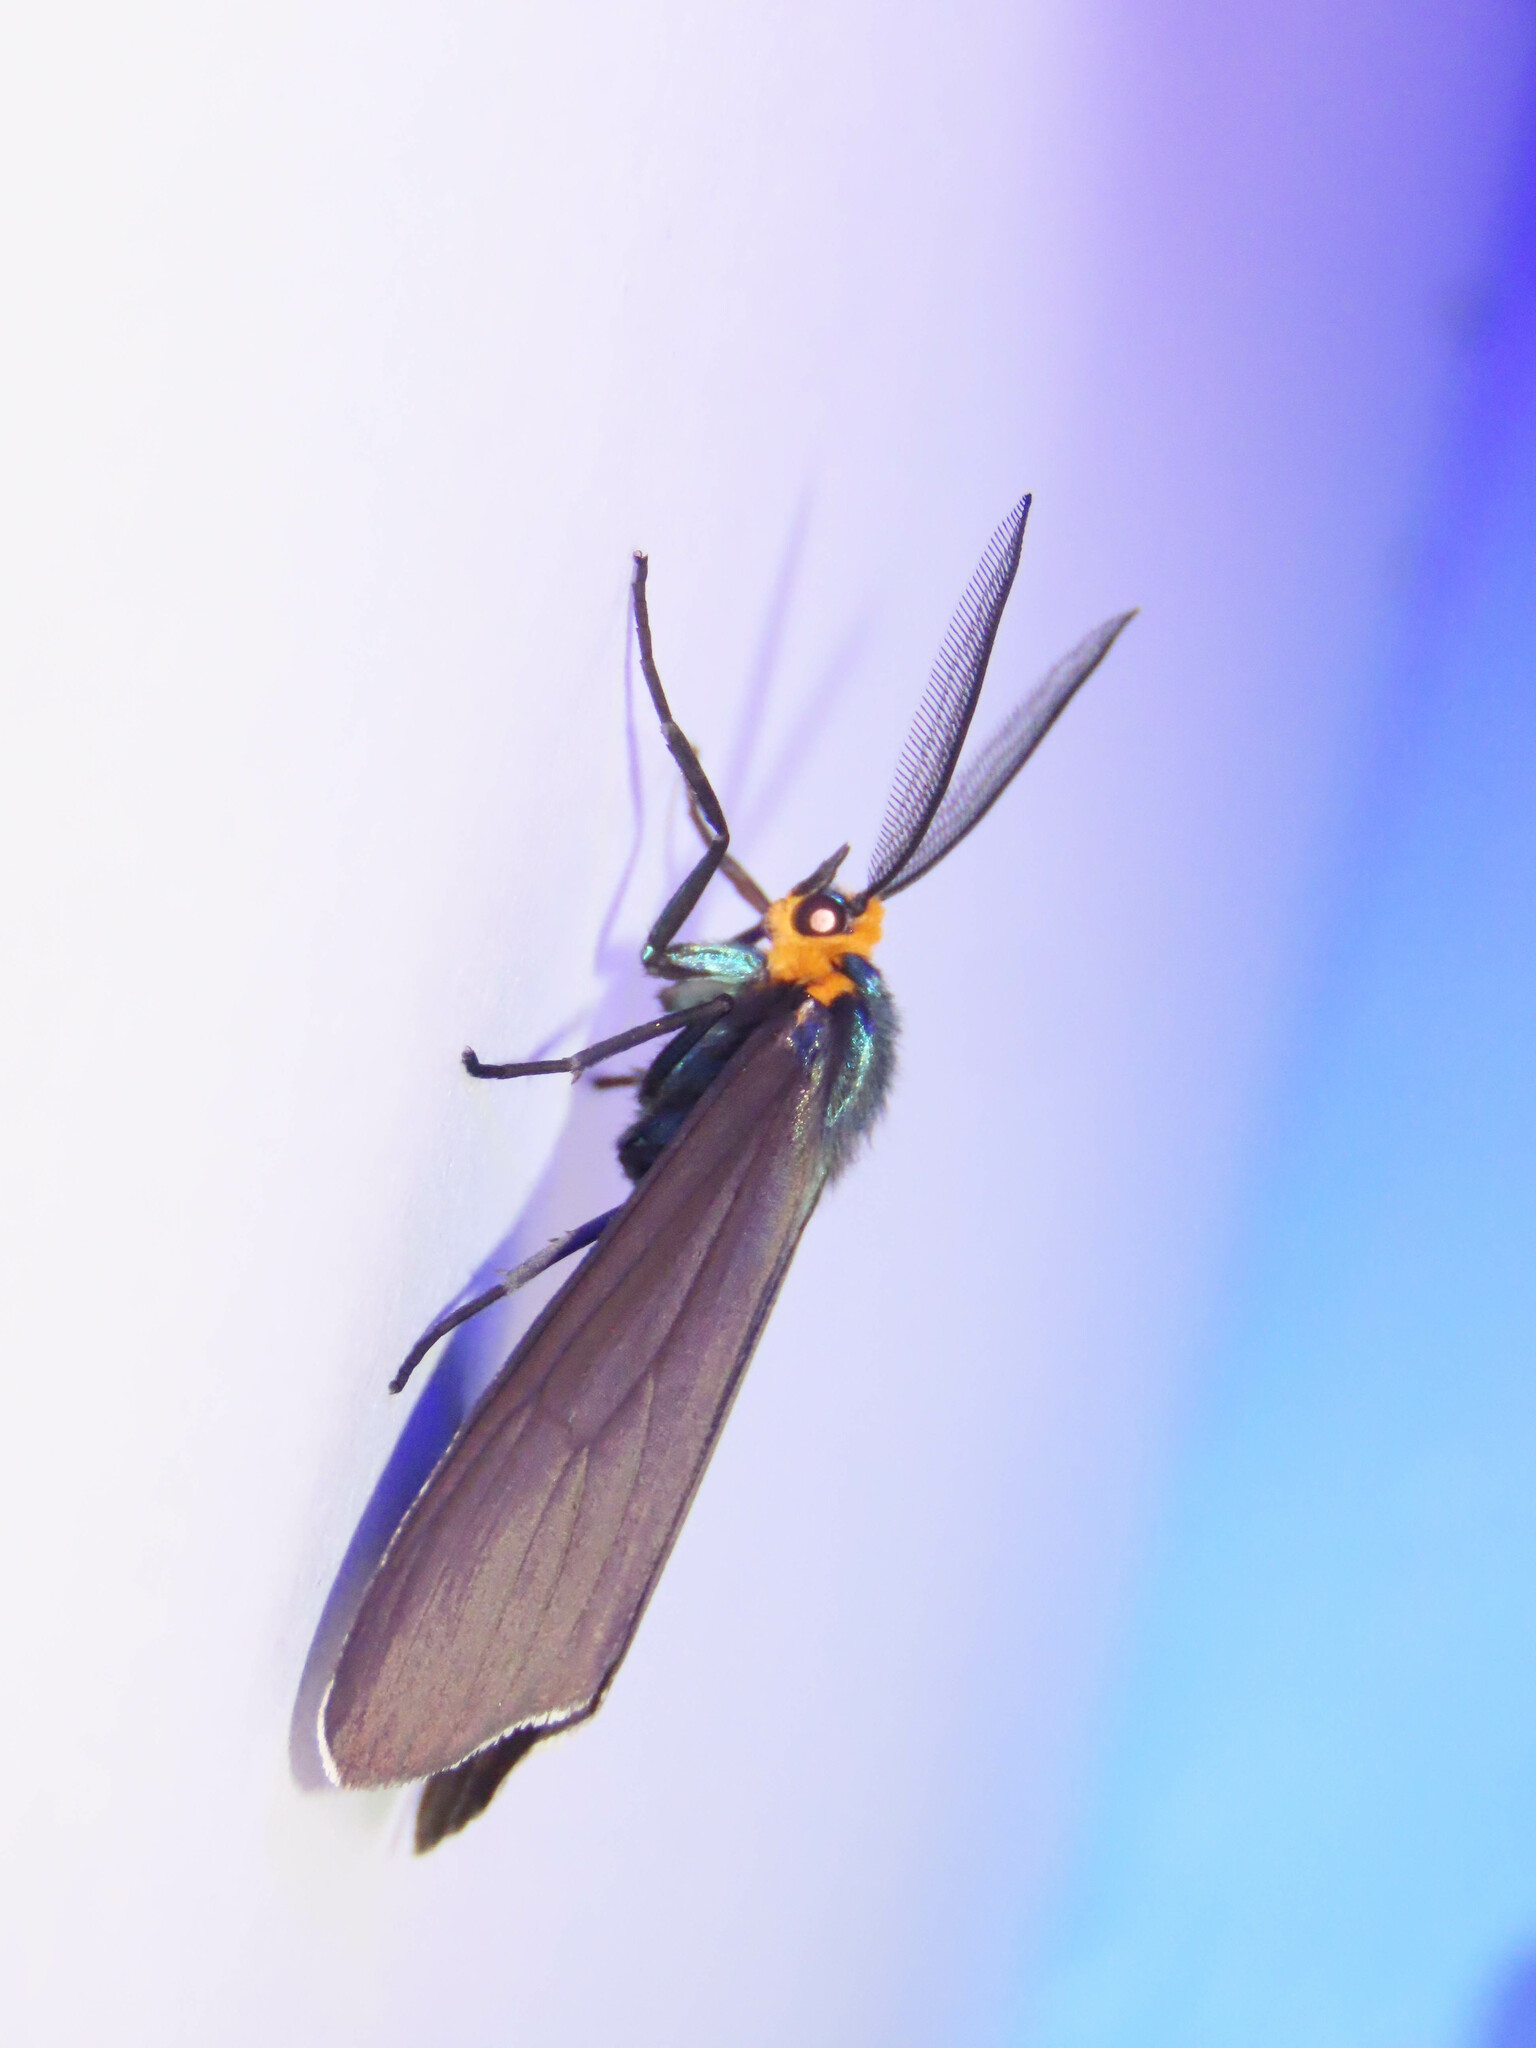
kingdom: Animalia
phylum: Arthropoda
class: Insecta
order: Lepidoptera
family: Erebidae
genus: Ctenucha
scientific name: Ctenucha virginica
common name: Virginia ctenucha moth
